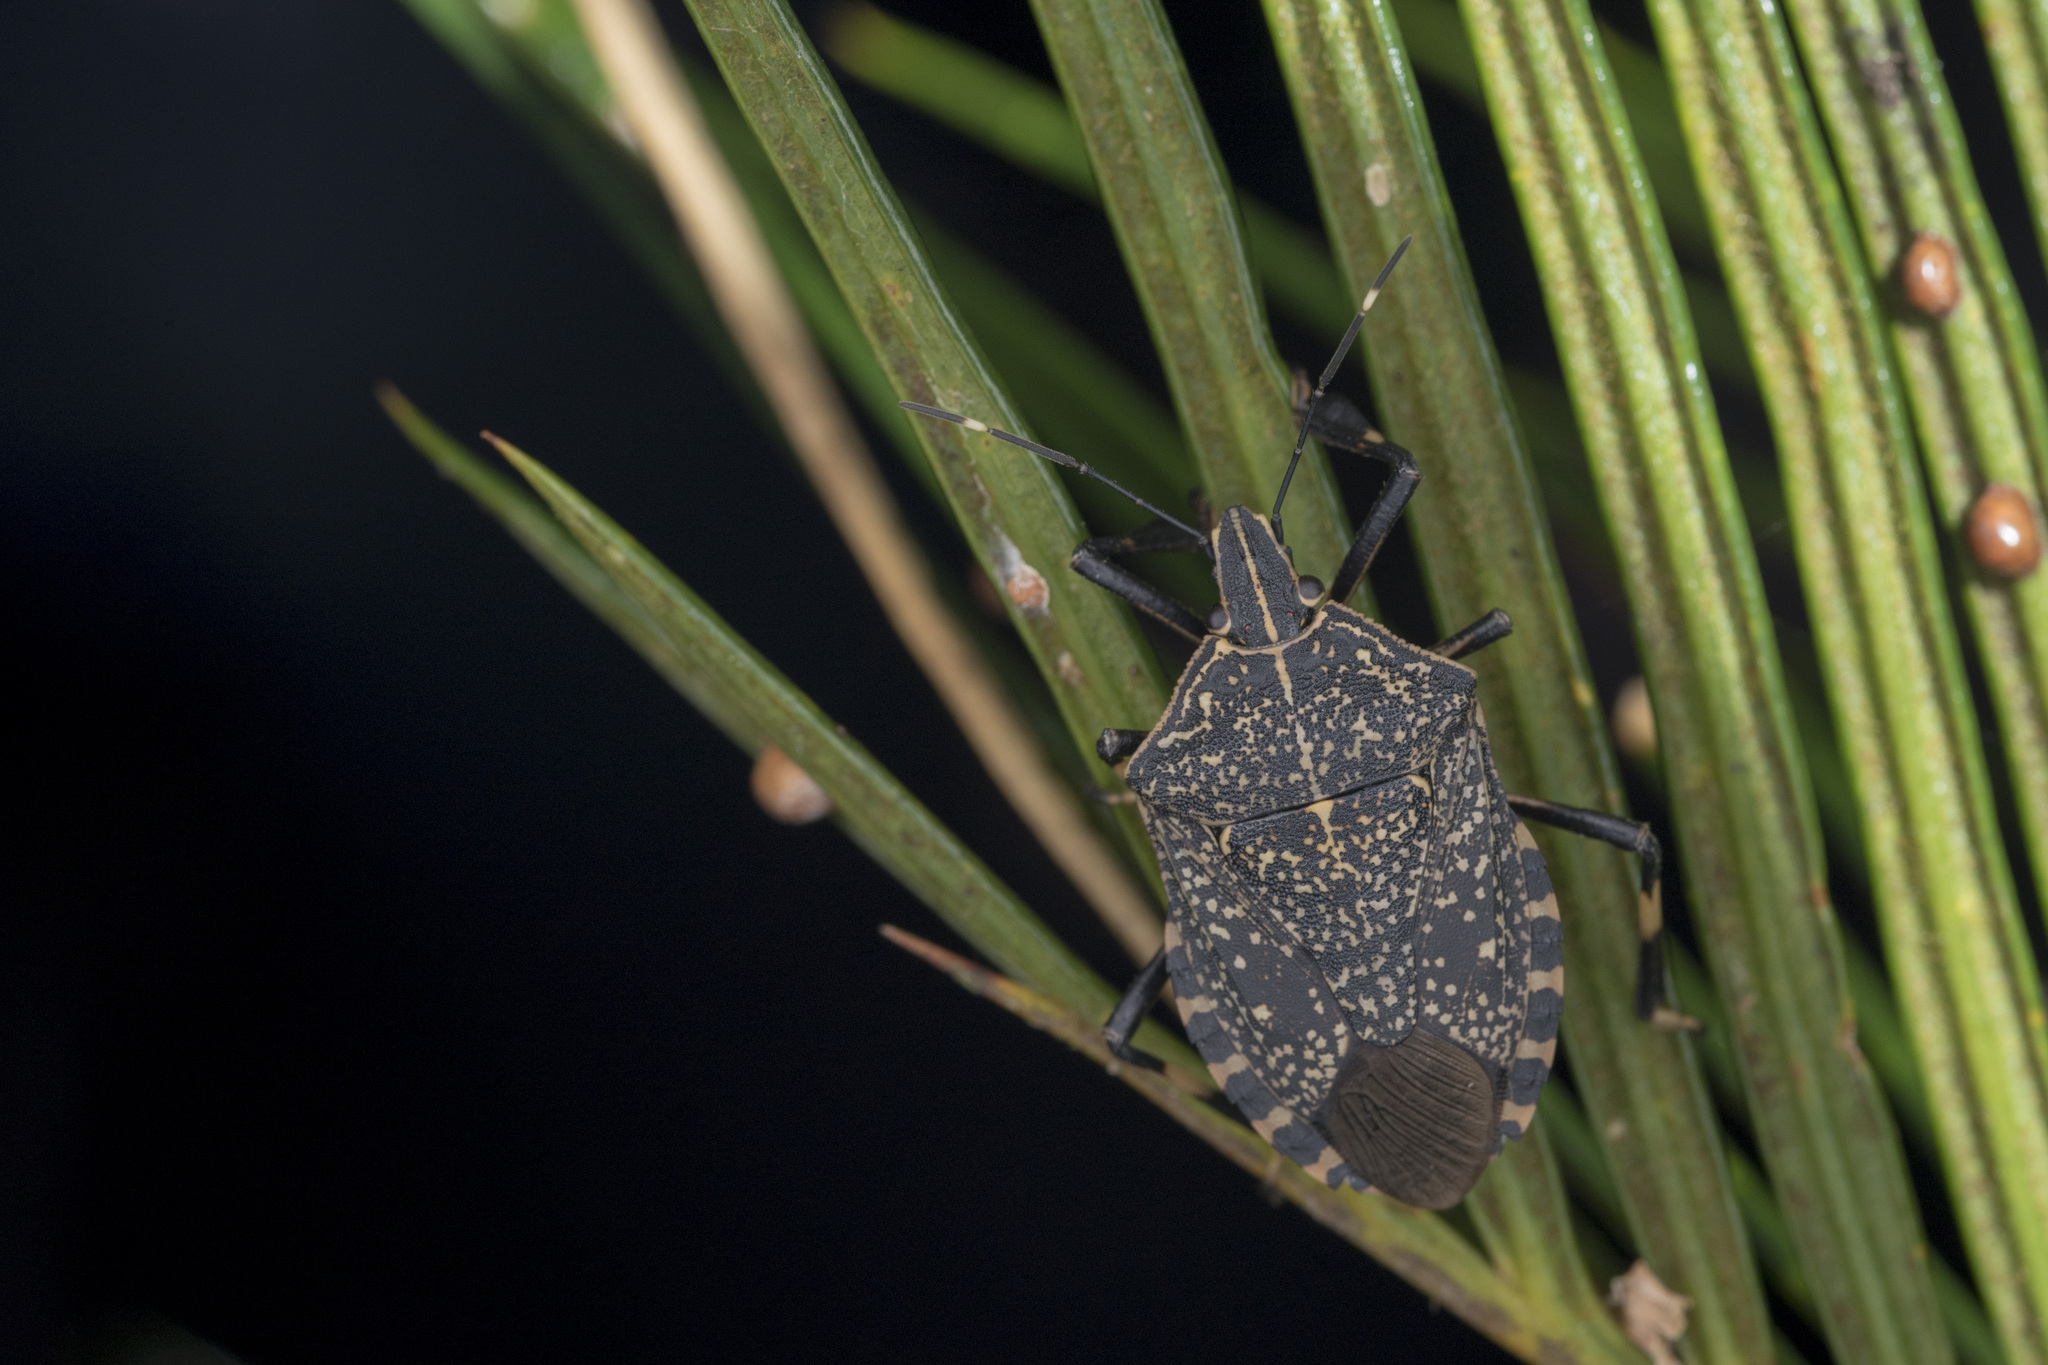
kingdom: Animalia
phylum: Arthropoda
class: Insecta
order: Hemiptera
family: Pentatomidae
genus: Erthesina
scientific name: Erthesina fullo
